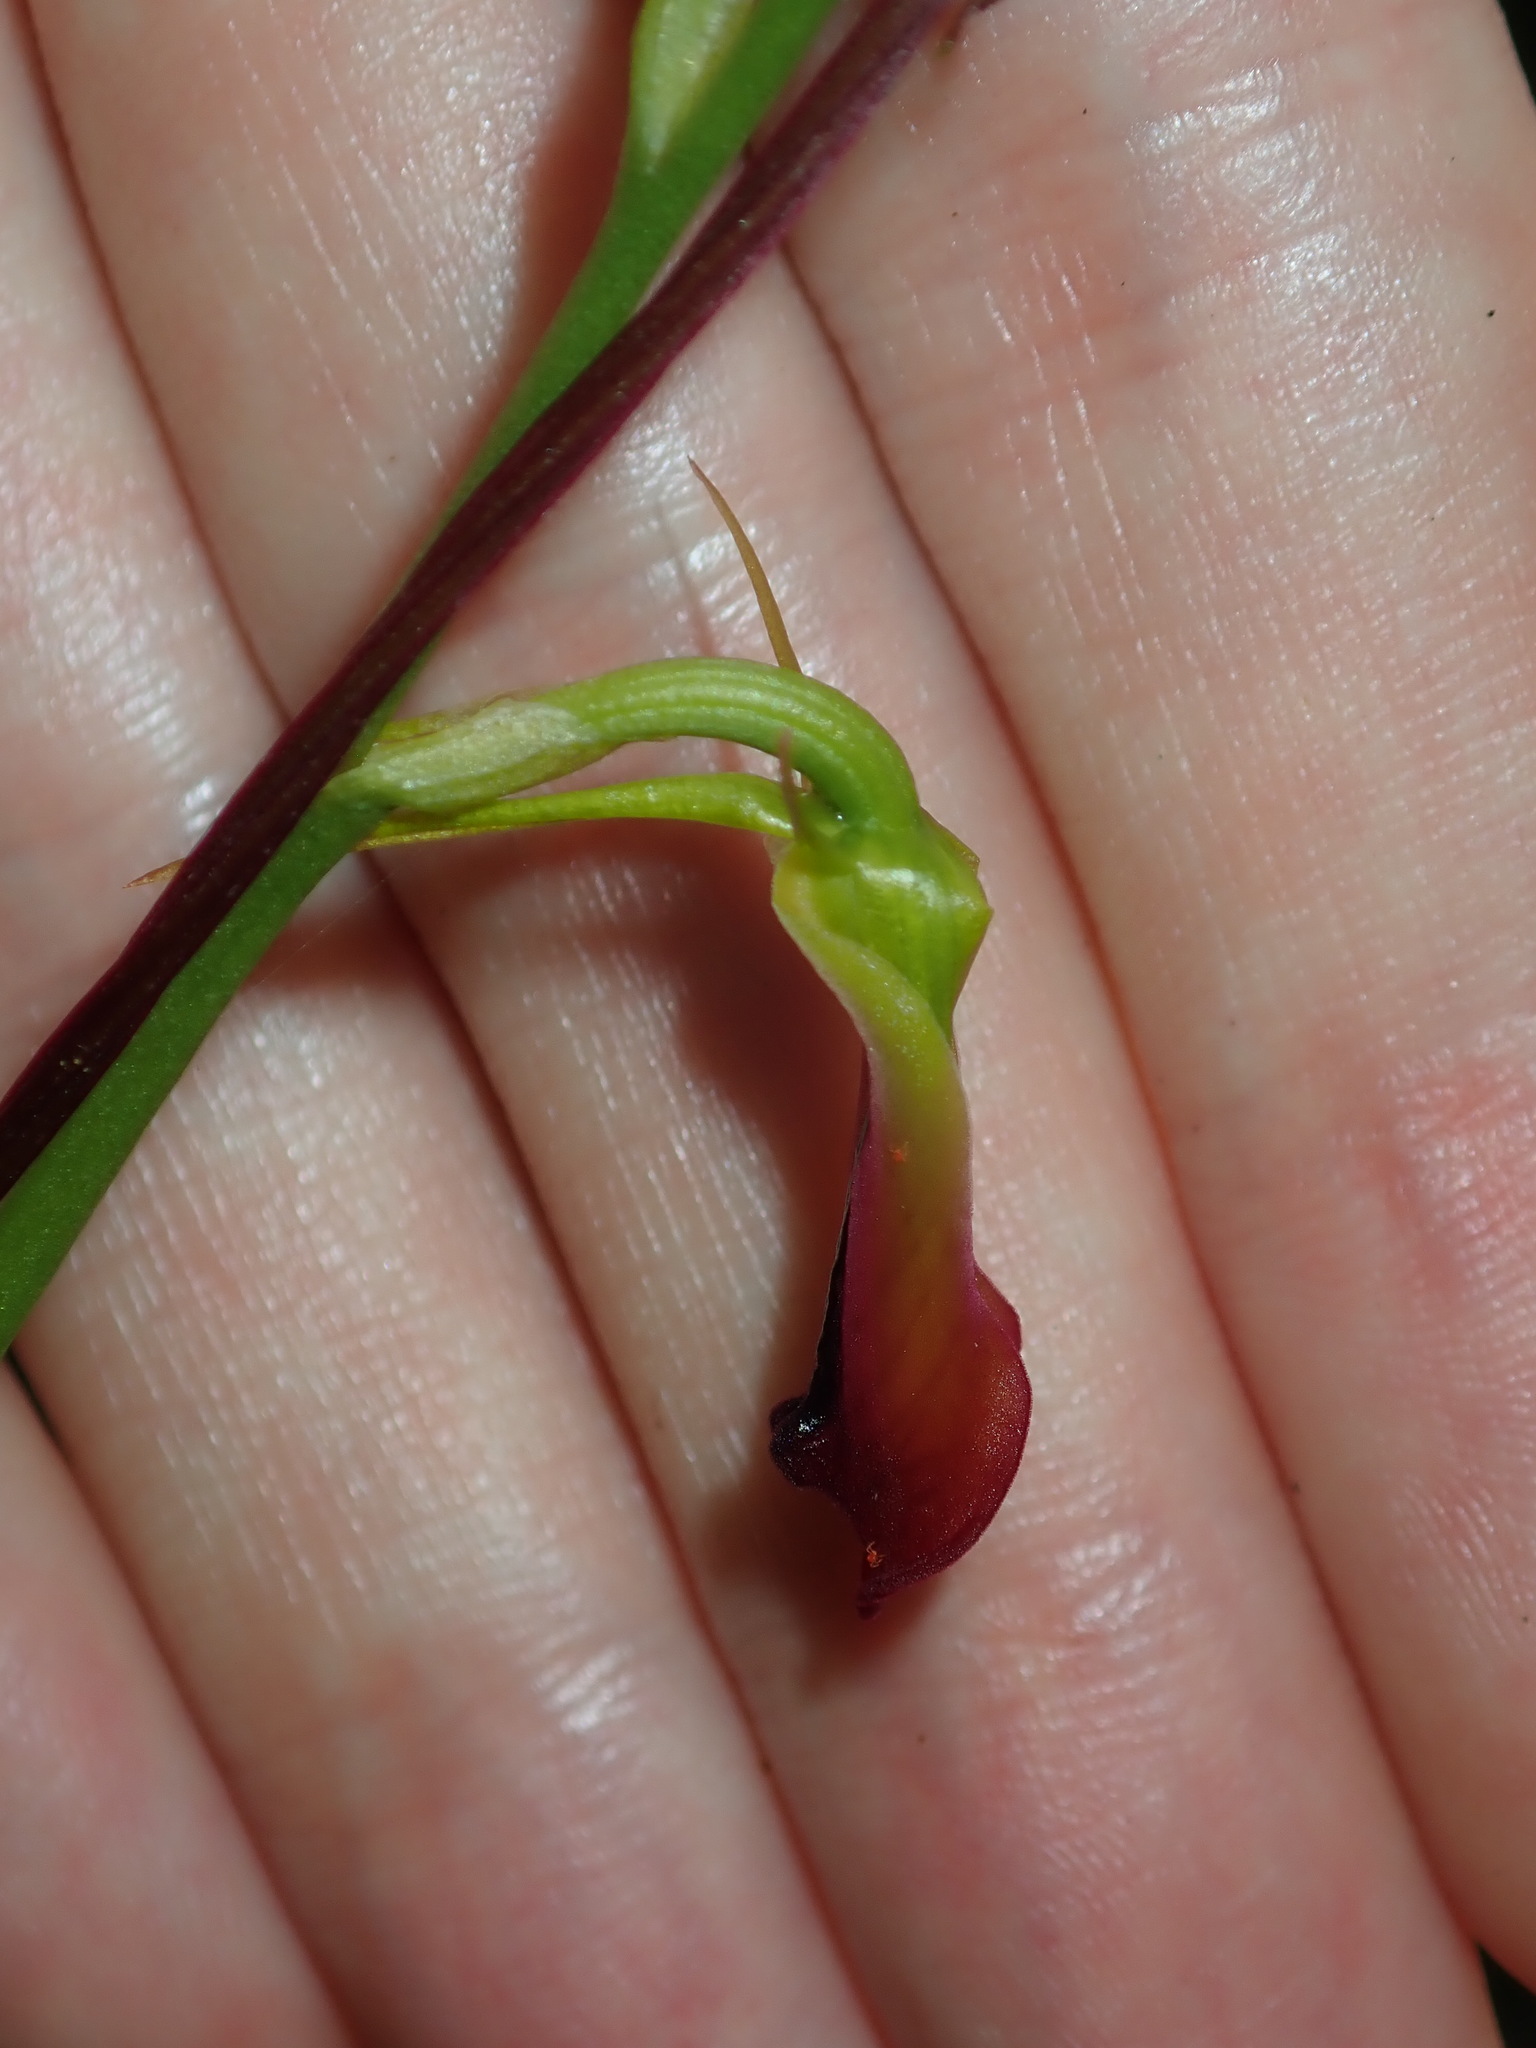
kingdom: Plantae
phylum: Tracheophyta
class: Liliopsida
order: Asparagales
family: Orchidaceae
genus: Cryptostylis
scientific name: Cryptostylis subulata
